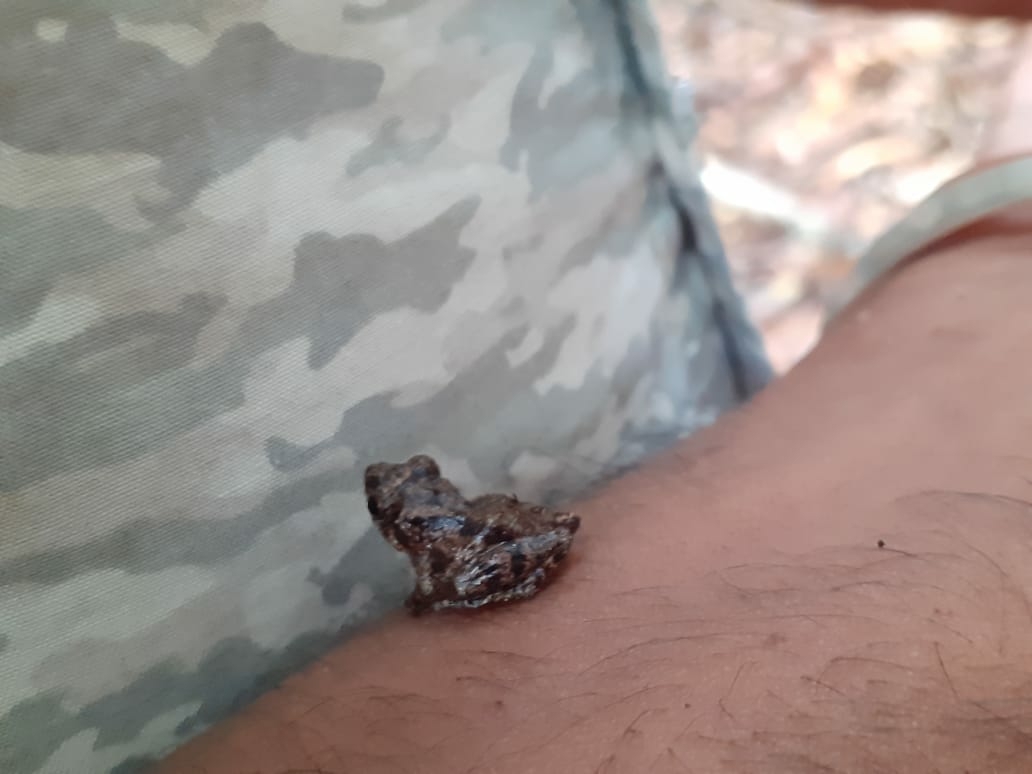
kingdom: Animalia
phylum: Chordata
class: Amphibia
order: Anura
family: Rhacophoridae
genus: Raorchestes
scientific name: Raorchestes tuberohumerus
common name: Kudremukh bush frog
